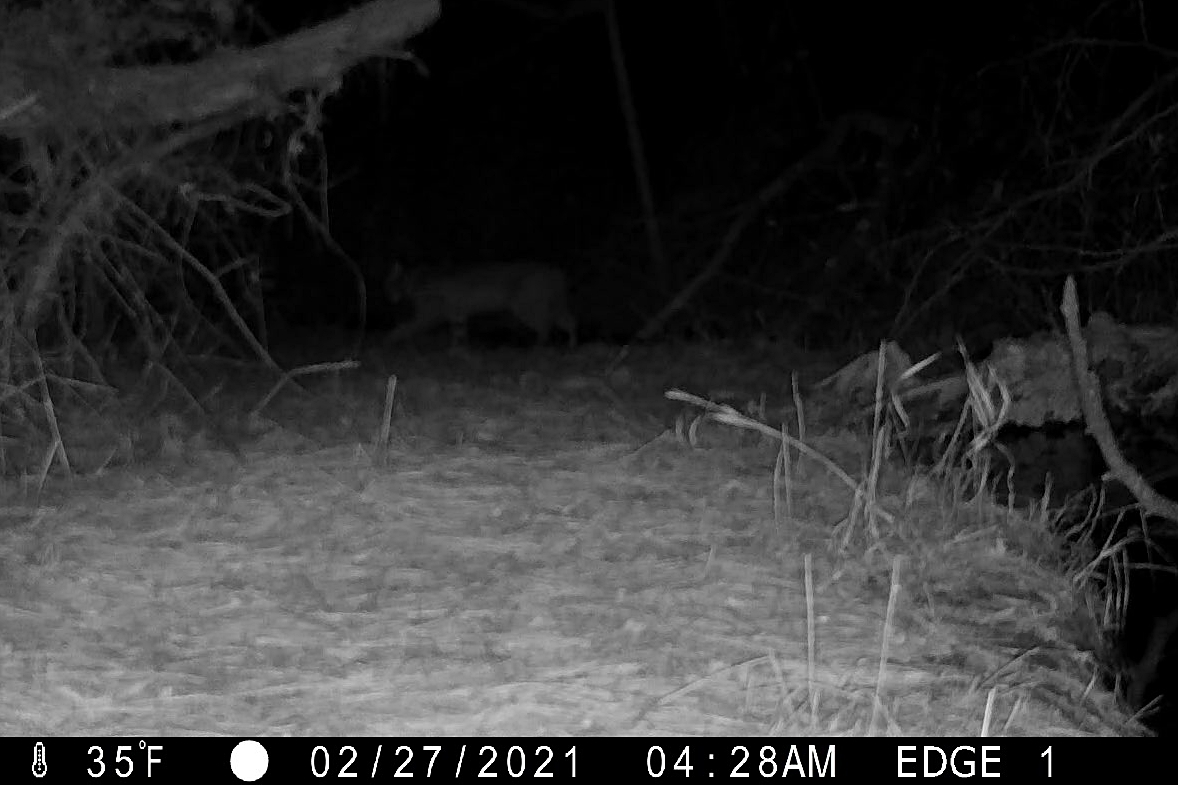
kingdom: Animalia
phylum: Chordata
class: Mammalia
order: Carnivora
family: Felidae
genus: Lynx
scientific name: Lynx rufus
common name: Bobcat
